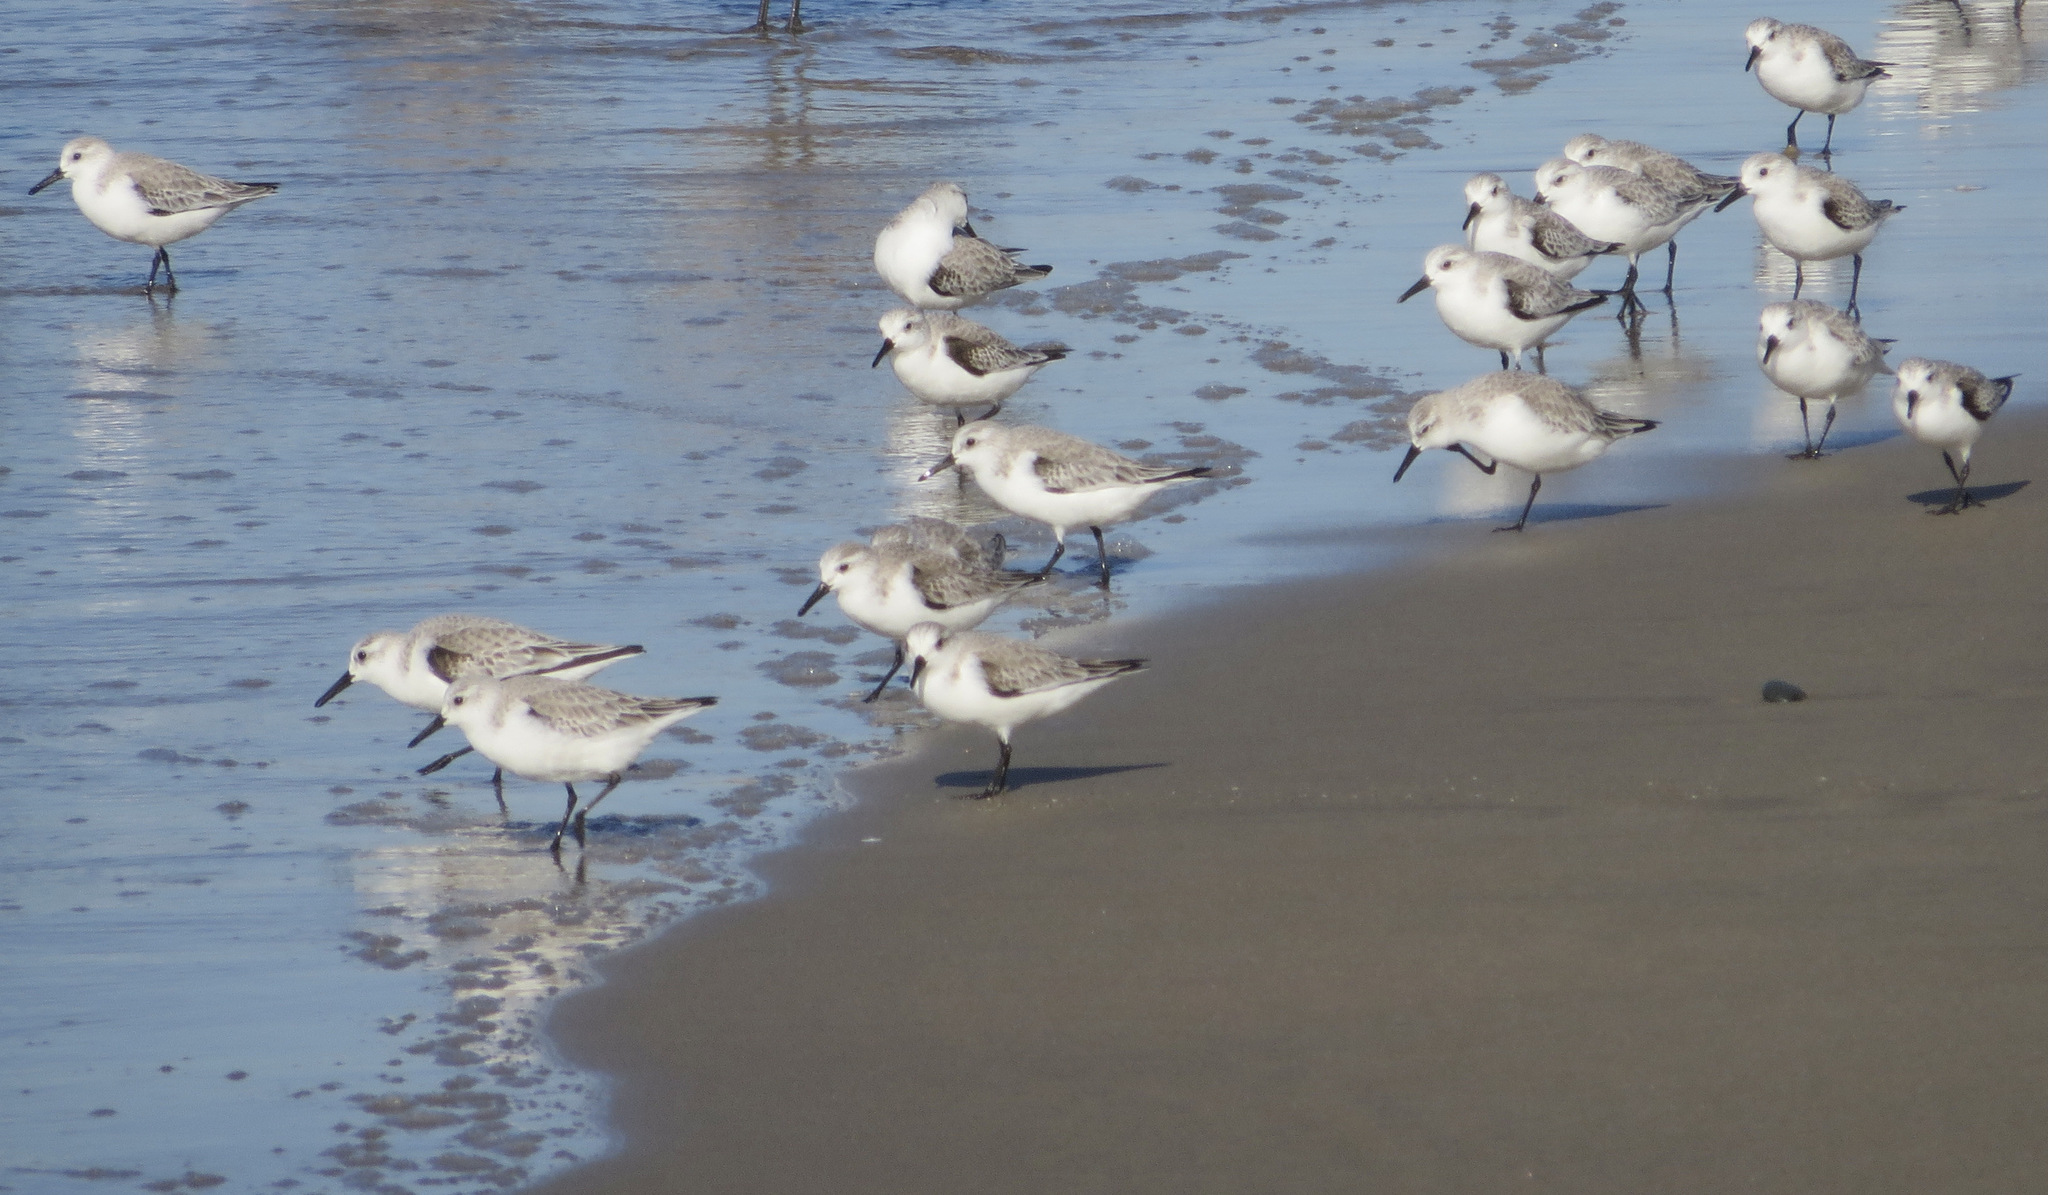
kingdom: Animalia
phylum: Chordata
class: Aves
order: Charadriiformes
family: Scolopacidae
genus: Calidris
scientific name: Calidris alba
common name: Sanderling
